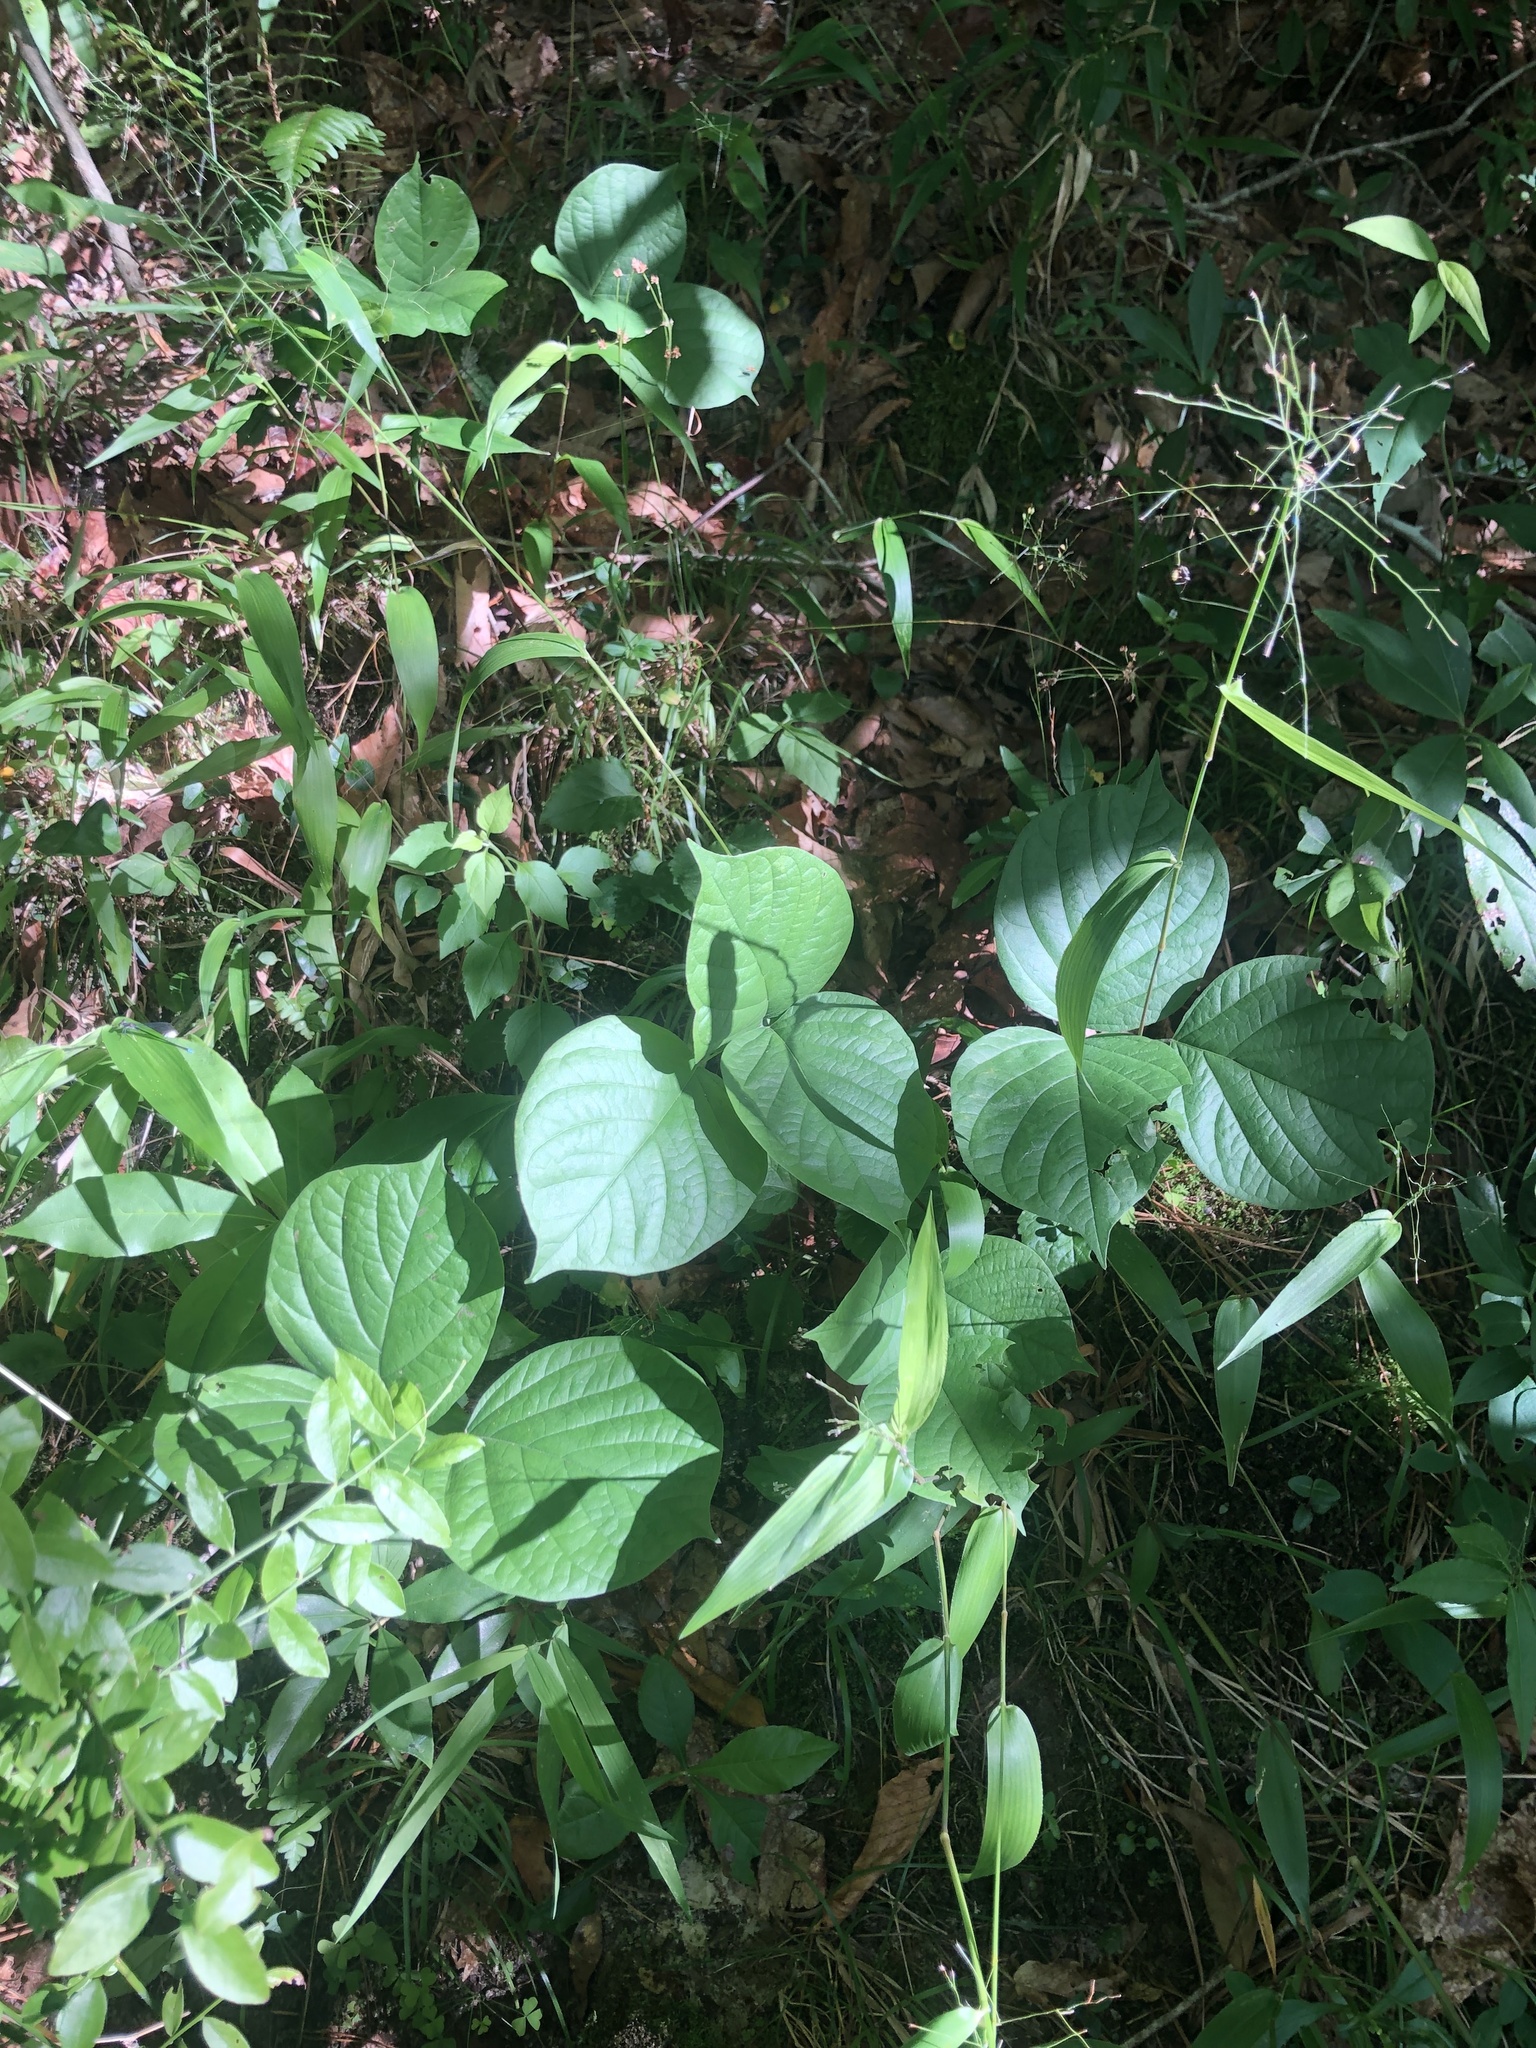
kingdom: Plantae
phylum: Tracheophyta
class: Magnoliopsida
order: Fabales
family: Fabaceae
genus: Lackeya
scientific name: Lackeya multiflora
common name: Boykin's clusterpea
